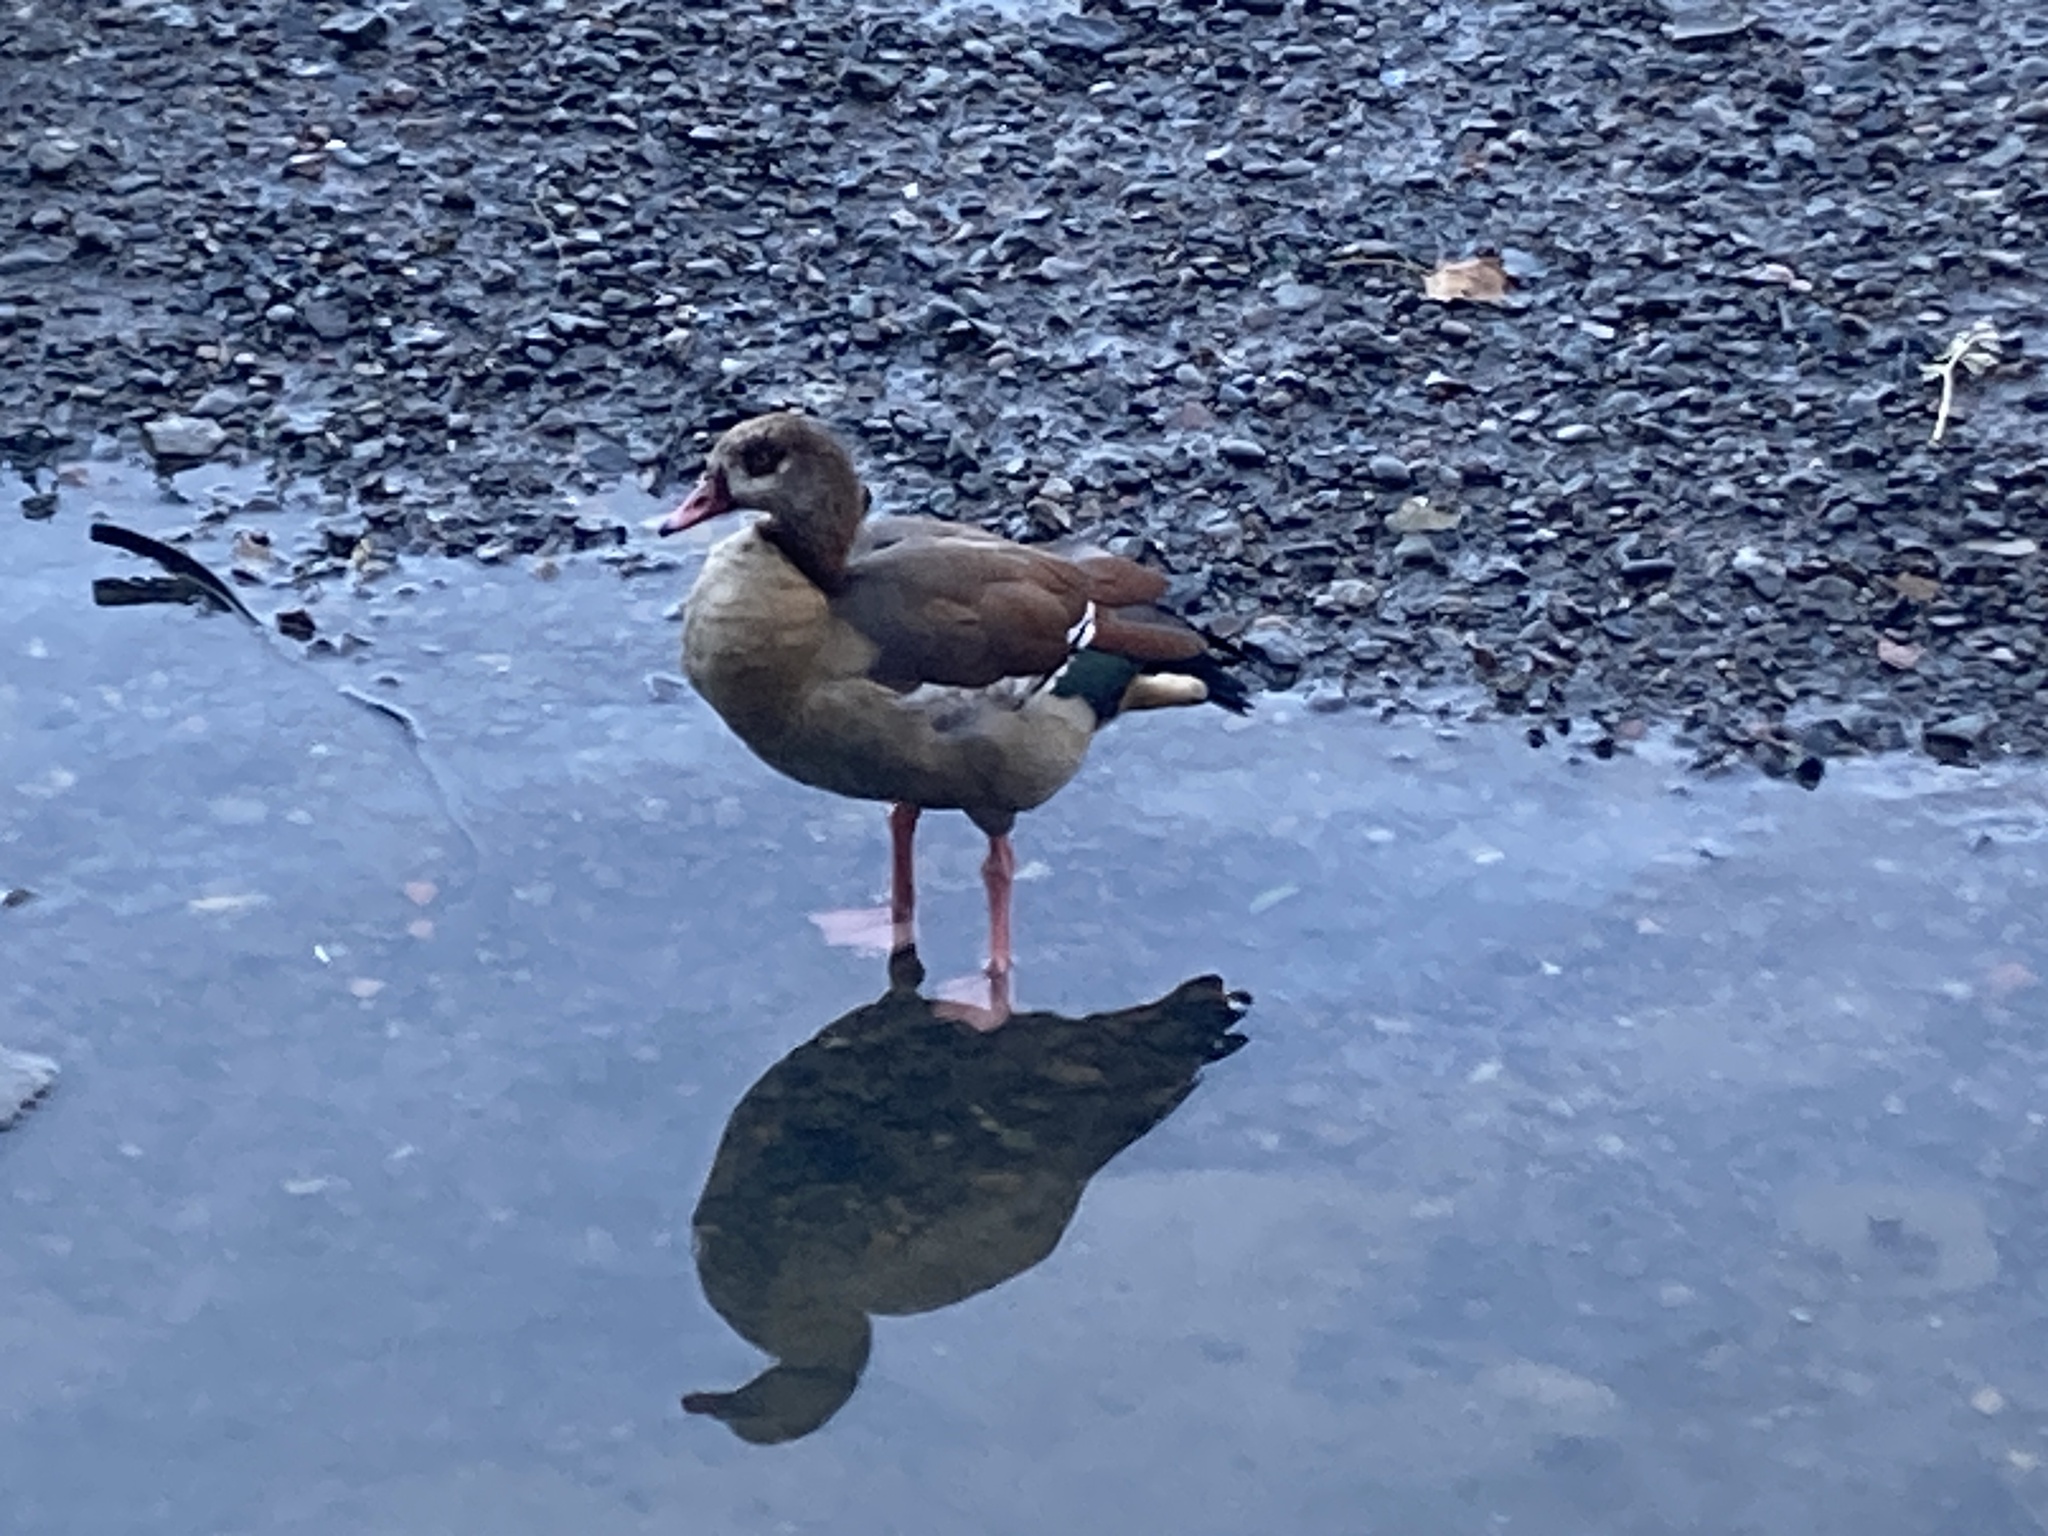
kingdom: Animalia
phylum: Chordata
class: Aves
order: Anseriformes
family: Anatidae
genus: Alopochen
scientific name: Alopochen aegyptiaca
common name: Egyptian goose
